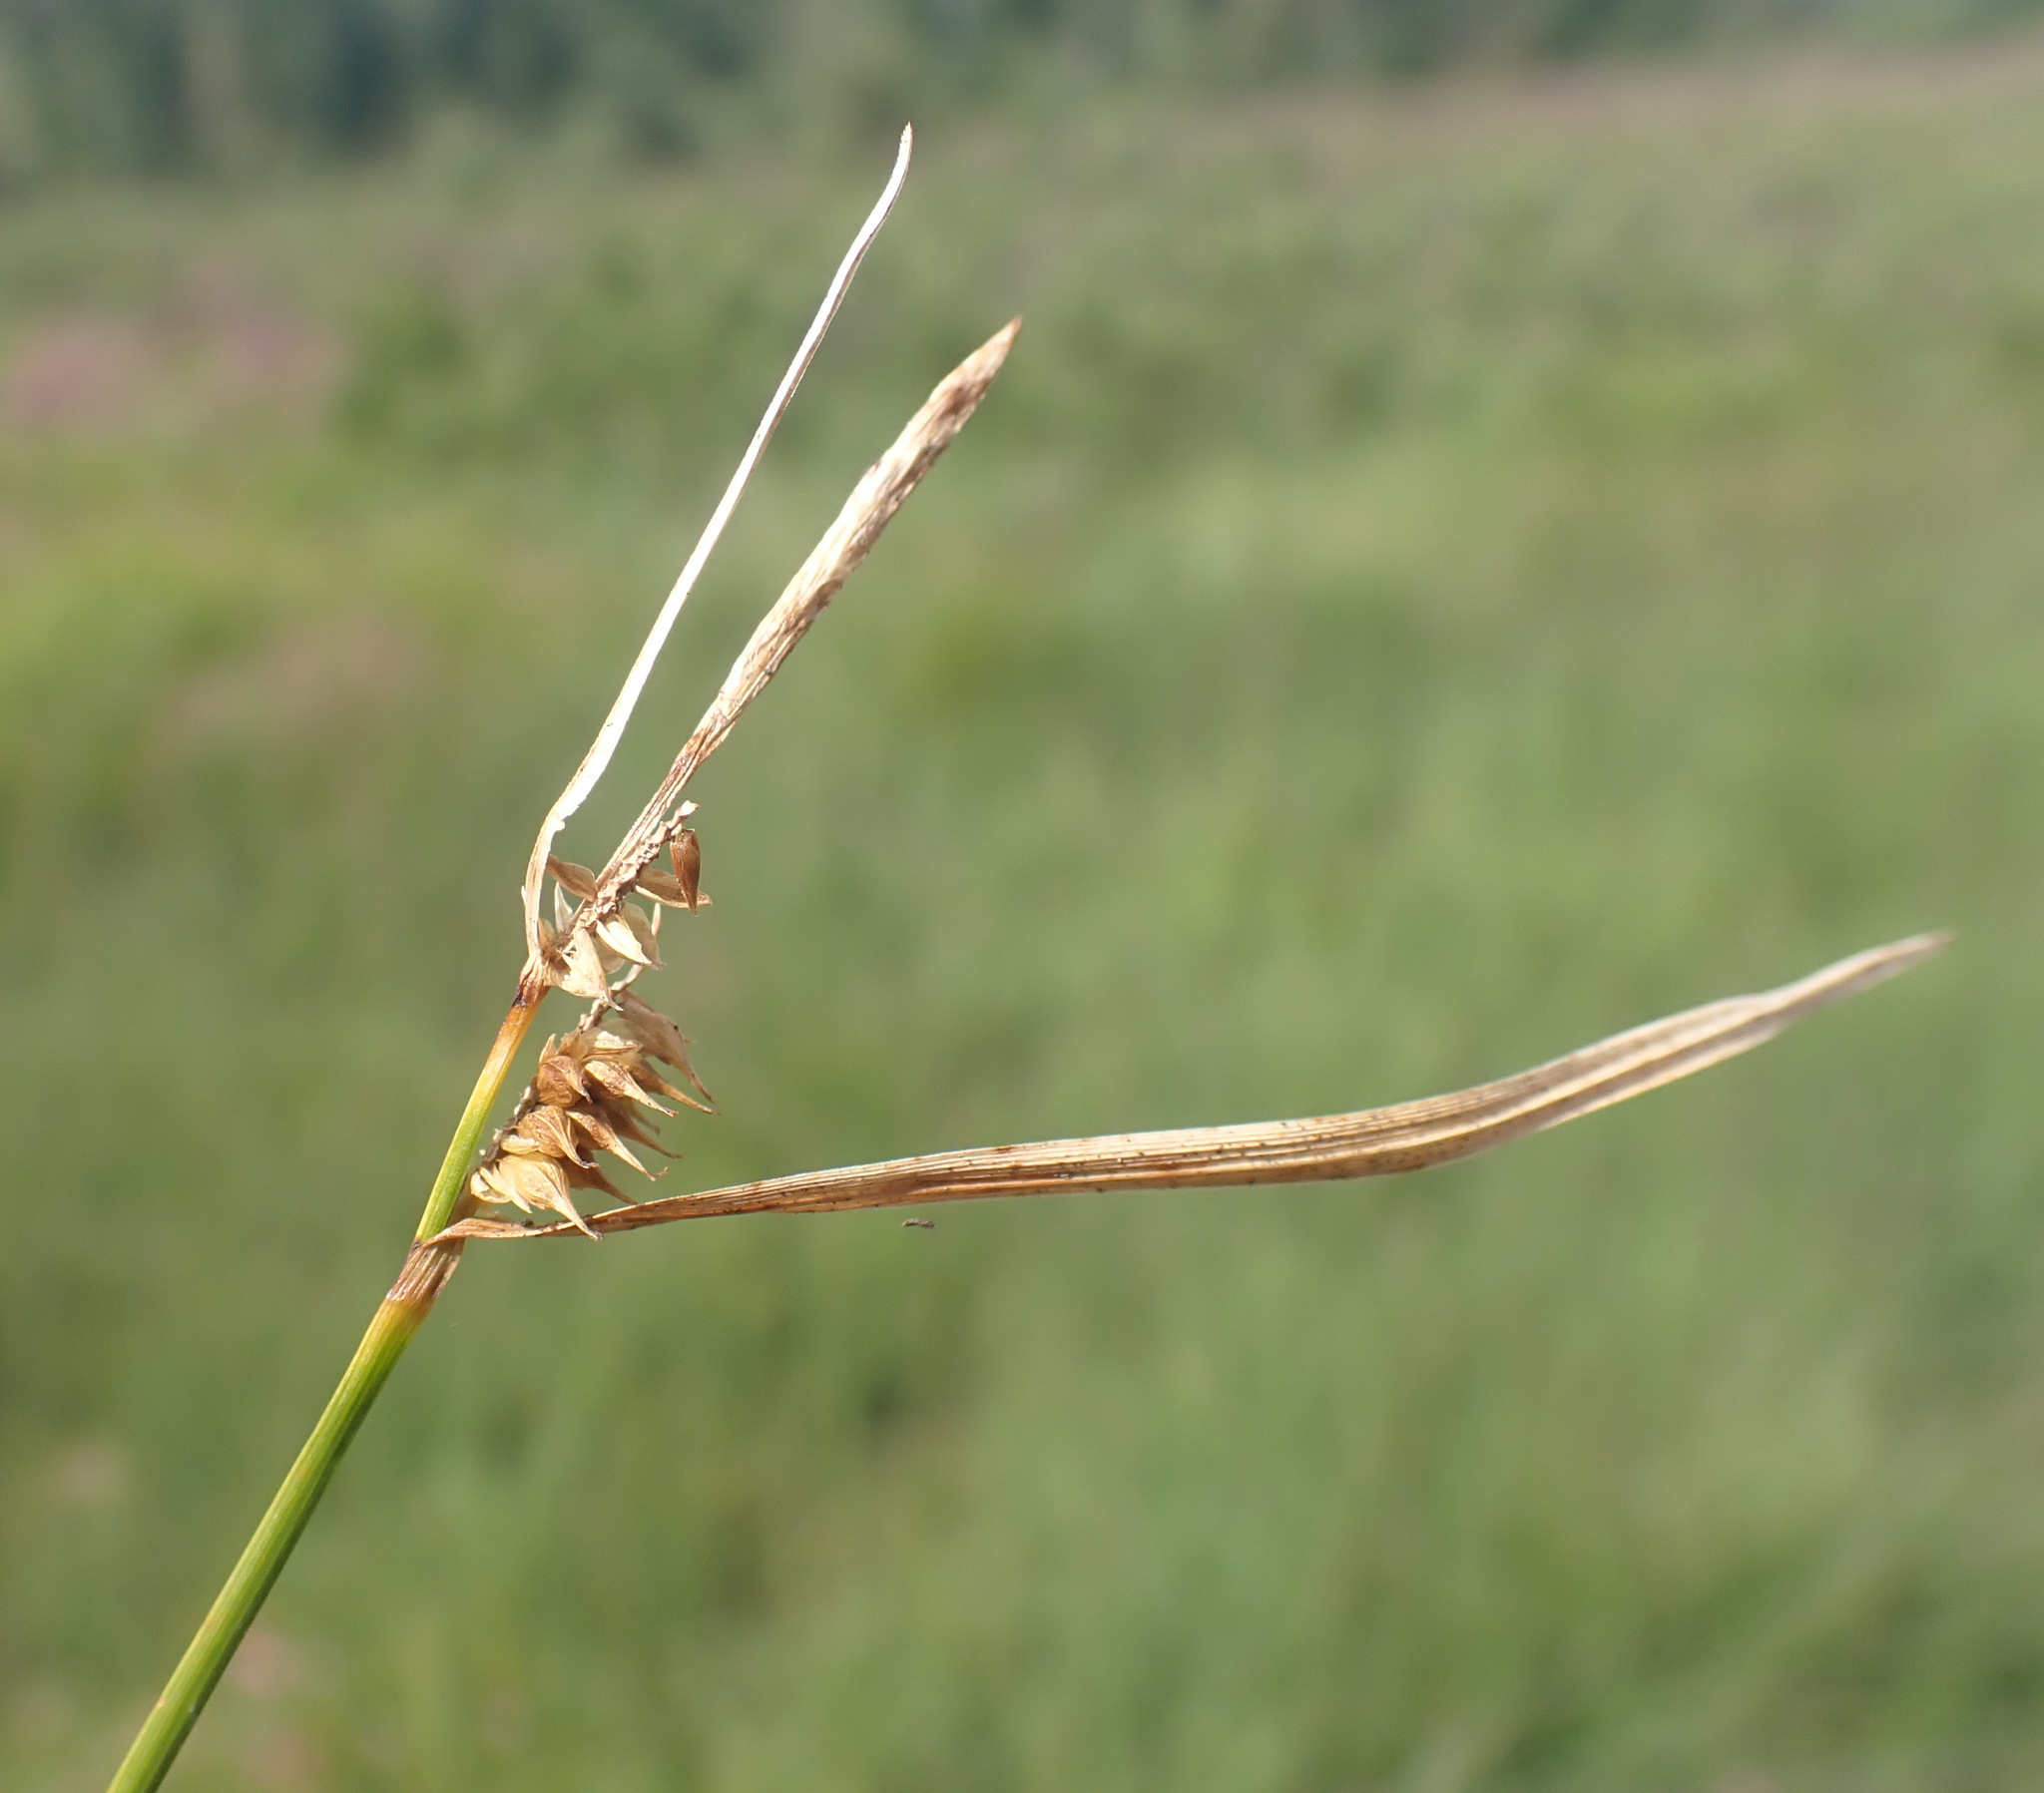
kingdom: Plantae
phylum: Tracheophyta
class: Liliopsida
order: Poales
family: Cyperaceae
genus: Carex
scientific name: Carex demissa
